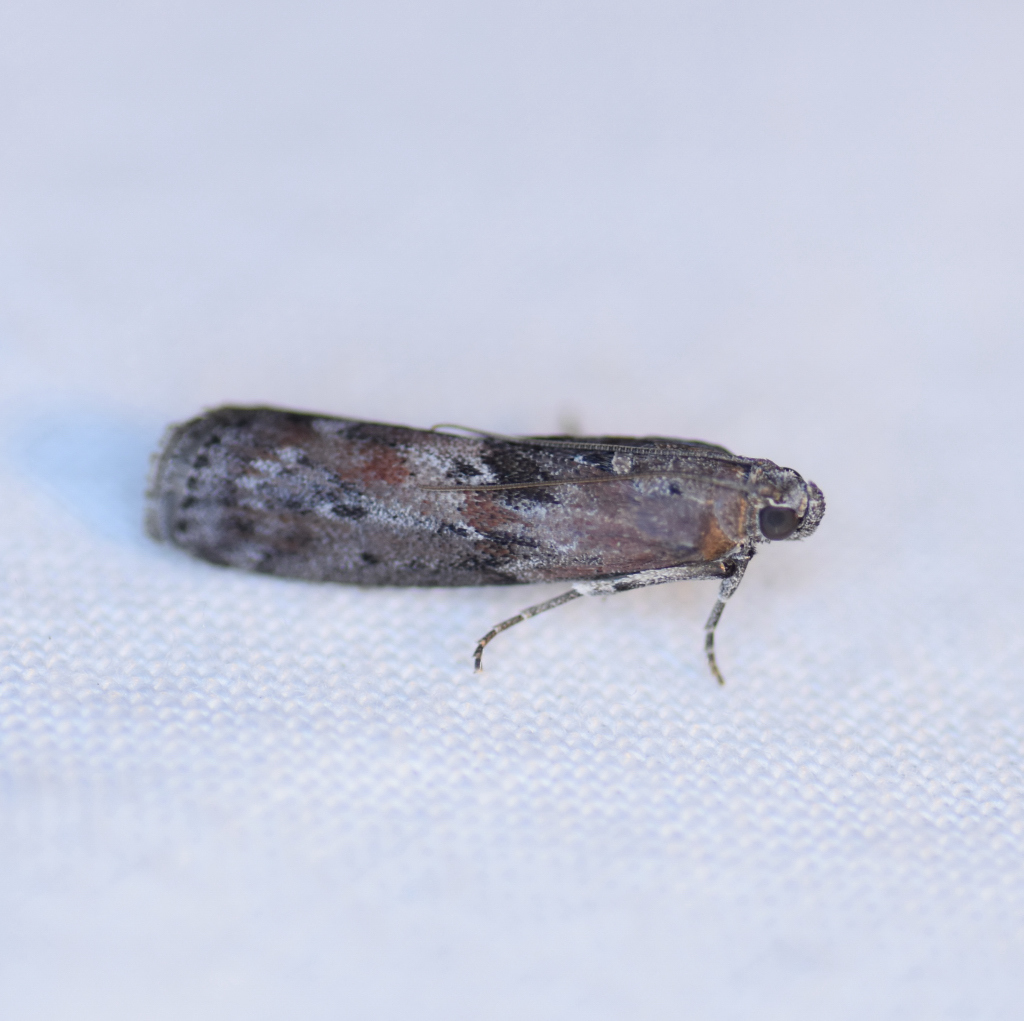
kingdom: Animalia
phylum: Arthropoda
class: Insecta
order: Lepidoptera
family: Pyralidae
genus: Sciota
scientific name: Sciota virgatella
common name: Black-spotted leafroller moth
